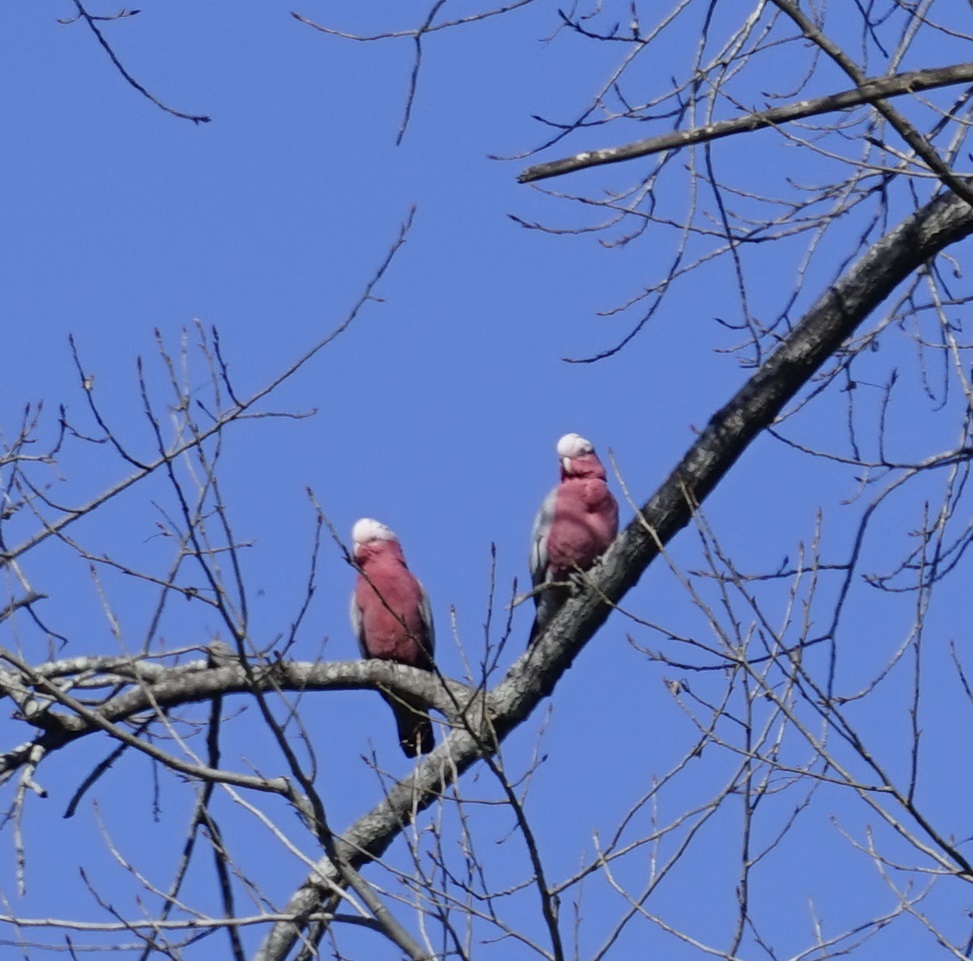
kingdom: Animalia
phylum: Chordata
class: Aves
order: Psittaciformes
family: Psittacidae
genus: Eolophus
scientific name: Eolophus roseicapilla
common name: Galah
